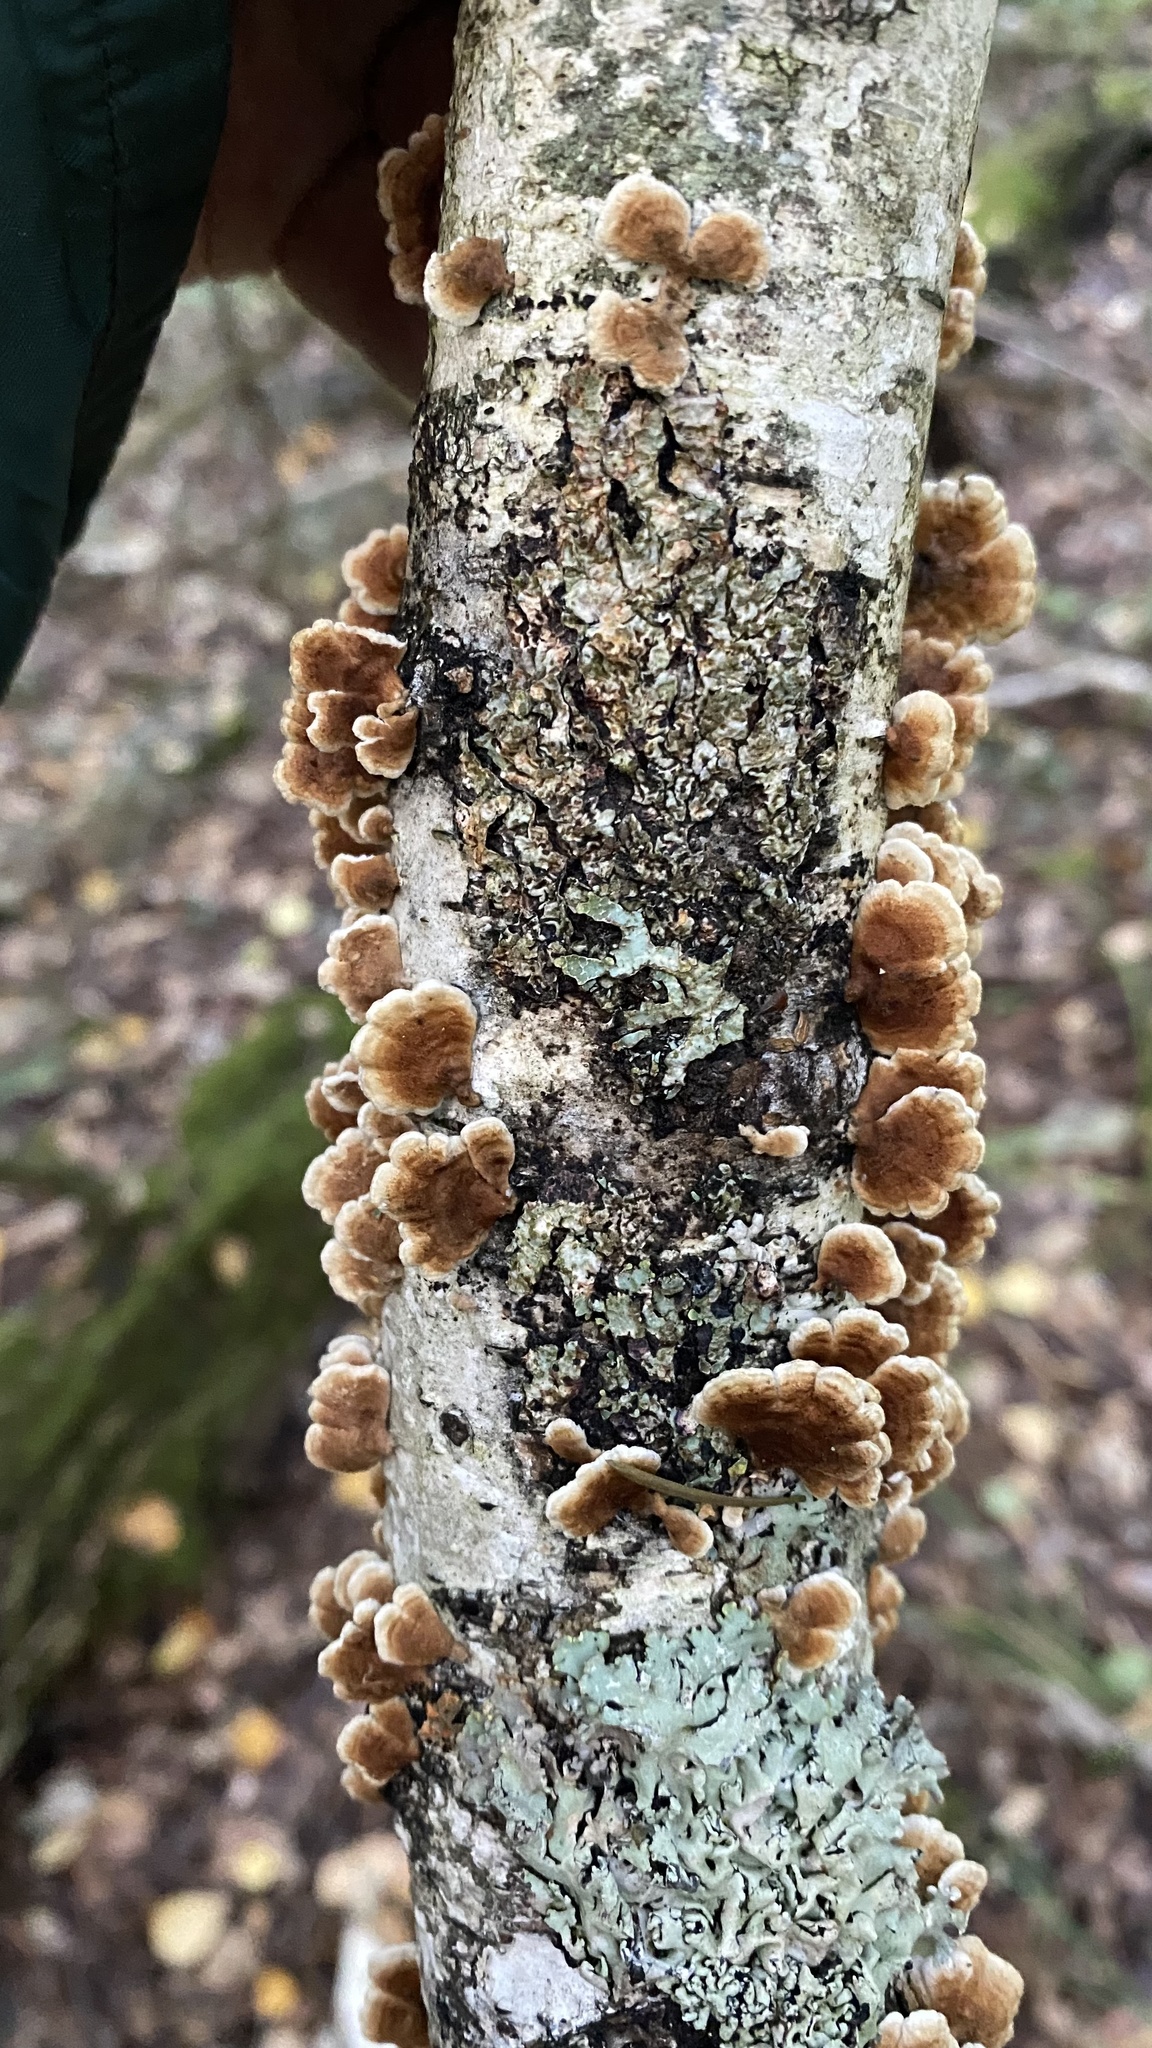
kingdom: Fungi
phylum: Basidiomycota
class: Agaricomycetes
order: Amylocorticiales
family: Amylocorticiaceae
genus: Plicaturopsis
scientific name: Plicaturopsis crispa
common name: Crimped gill
